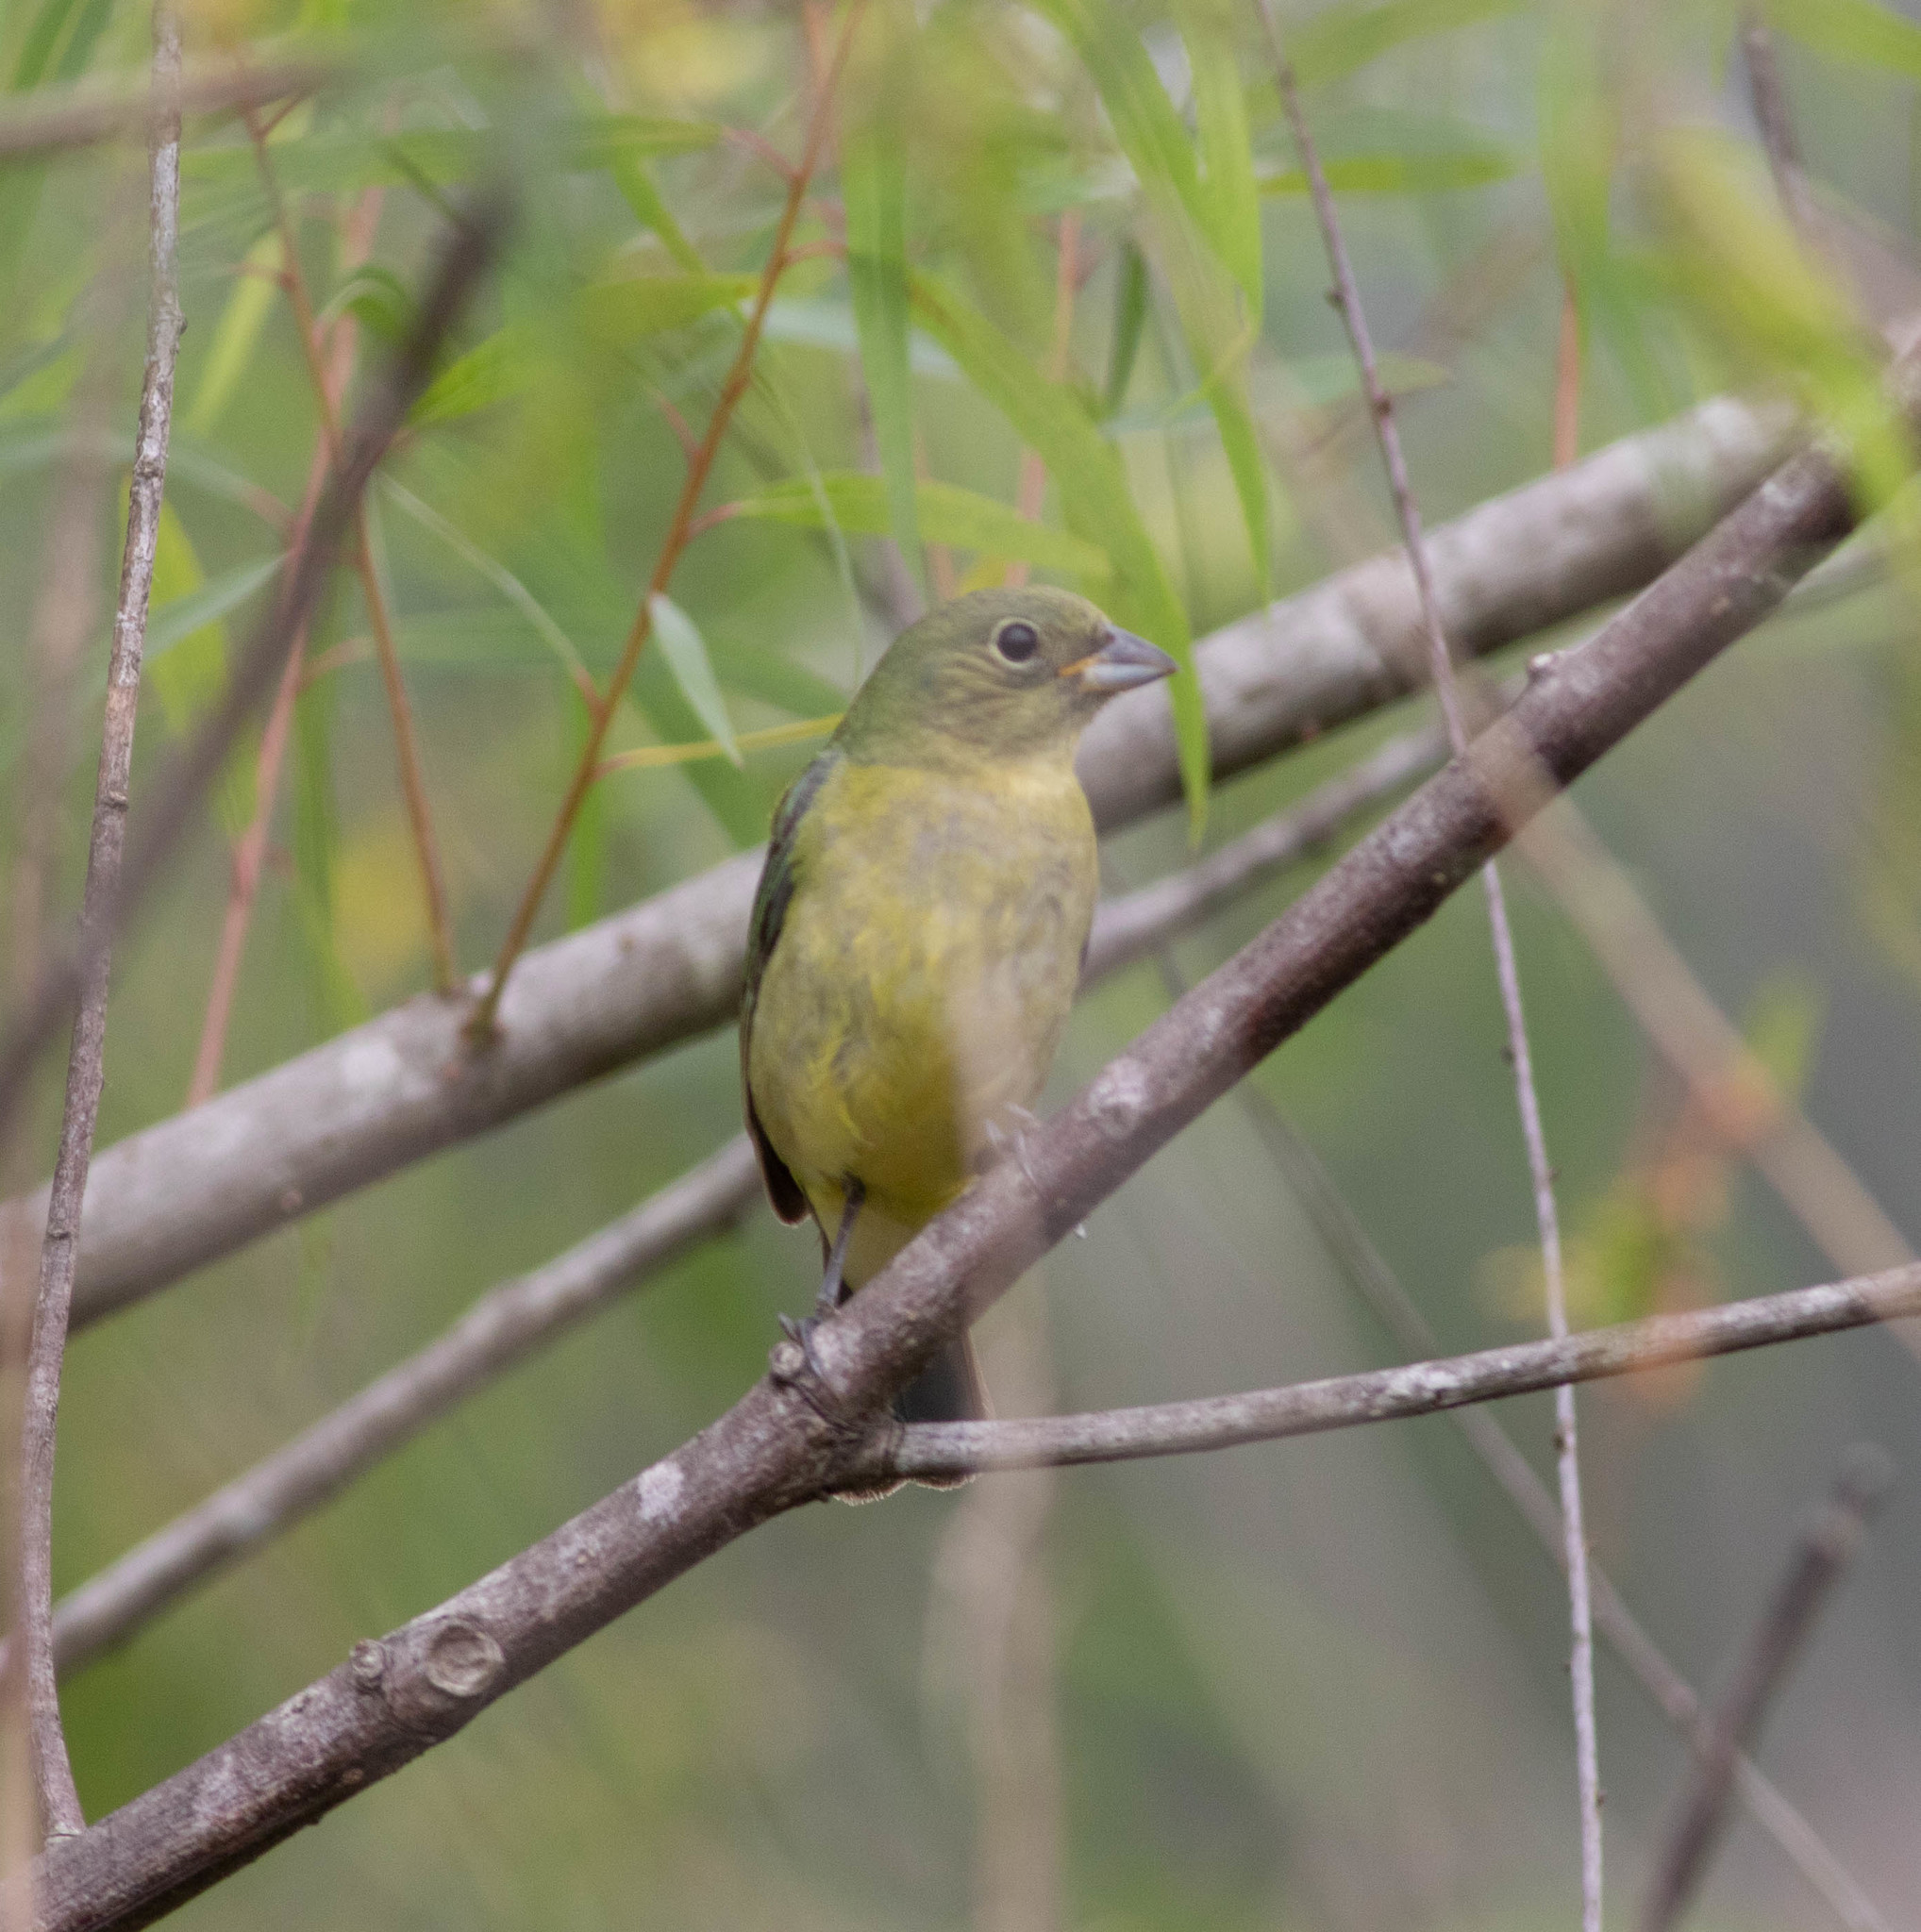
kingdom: Animalia
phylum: Chordata
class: Aves
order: Passeriformes
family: Cardinalidae
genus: Passerina
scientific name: Passerina ciris
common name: Painted bunting
